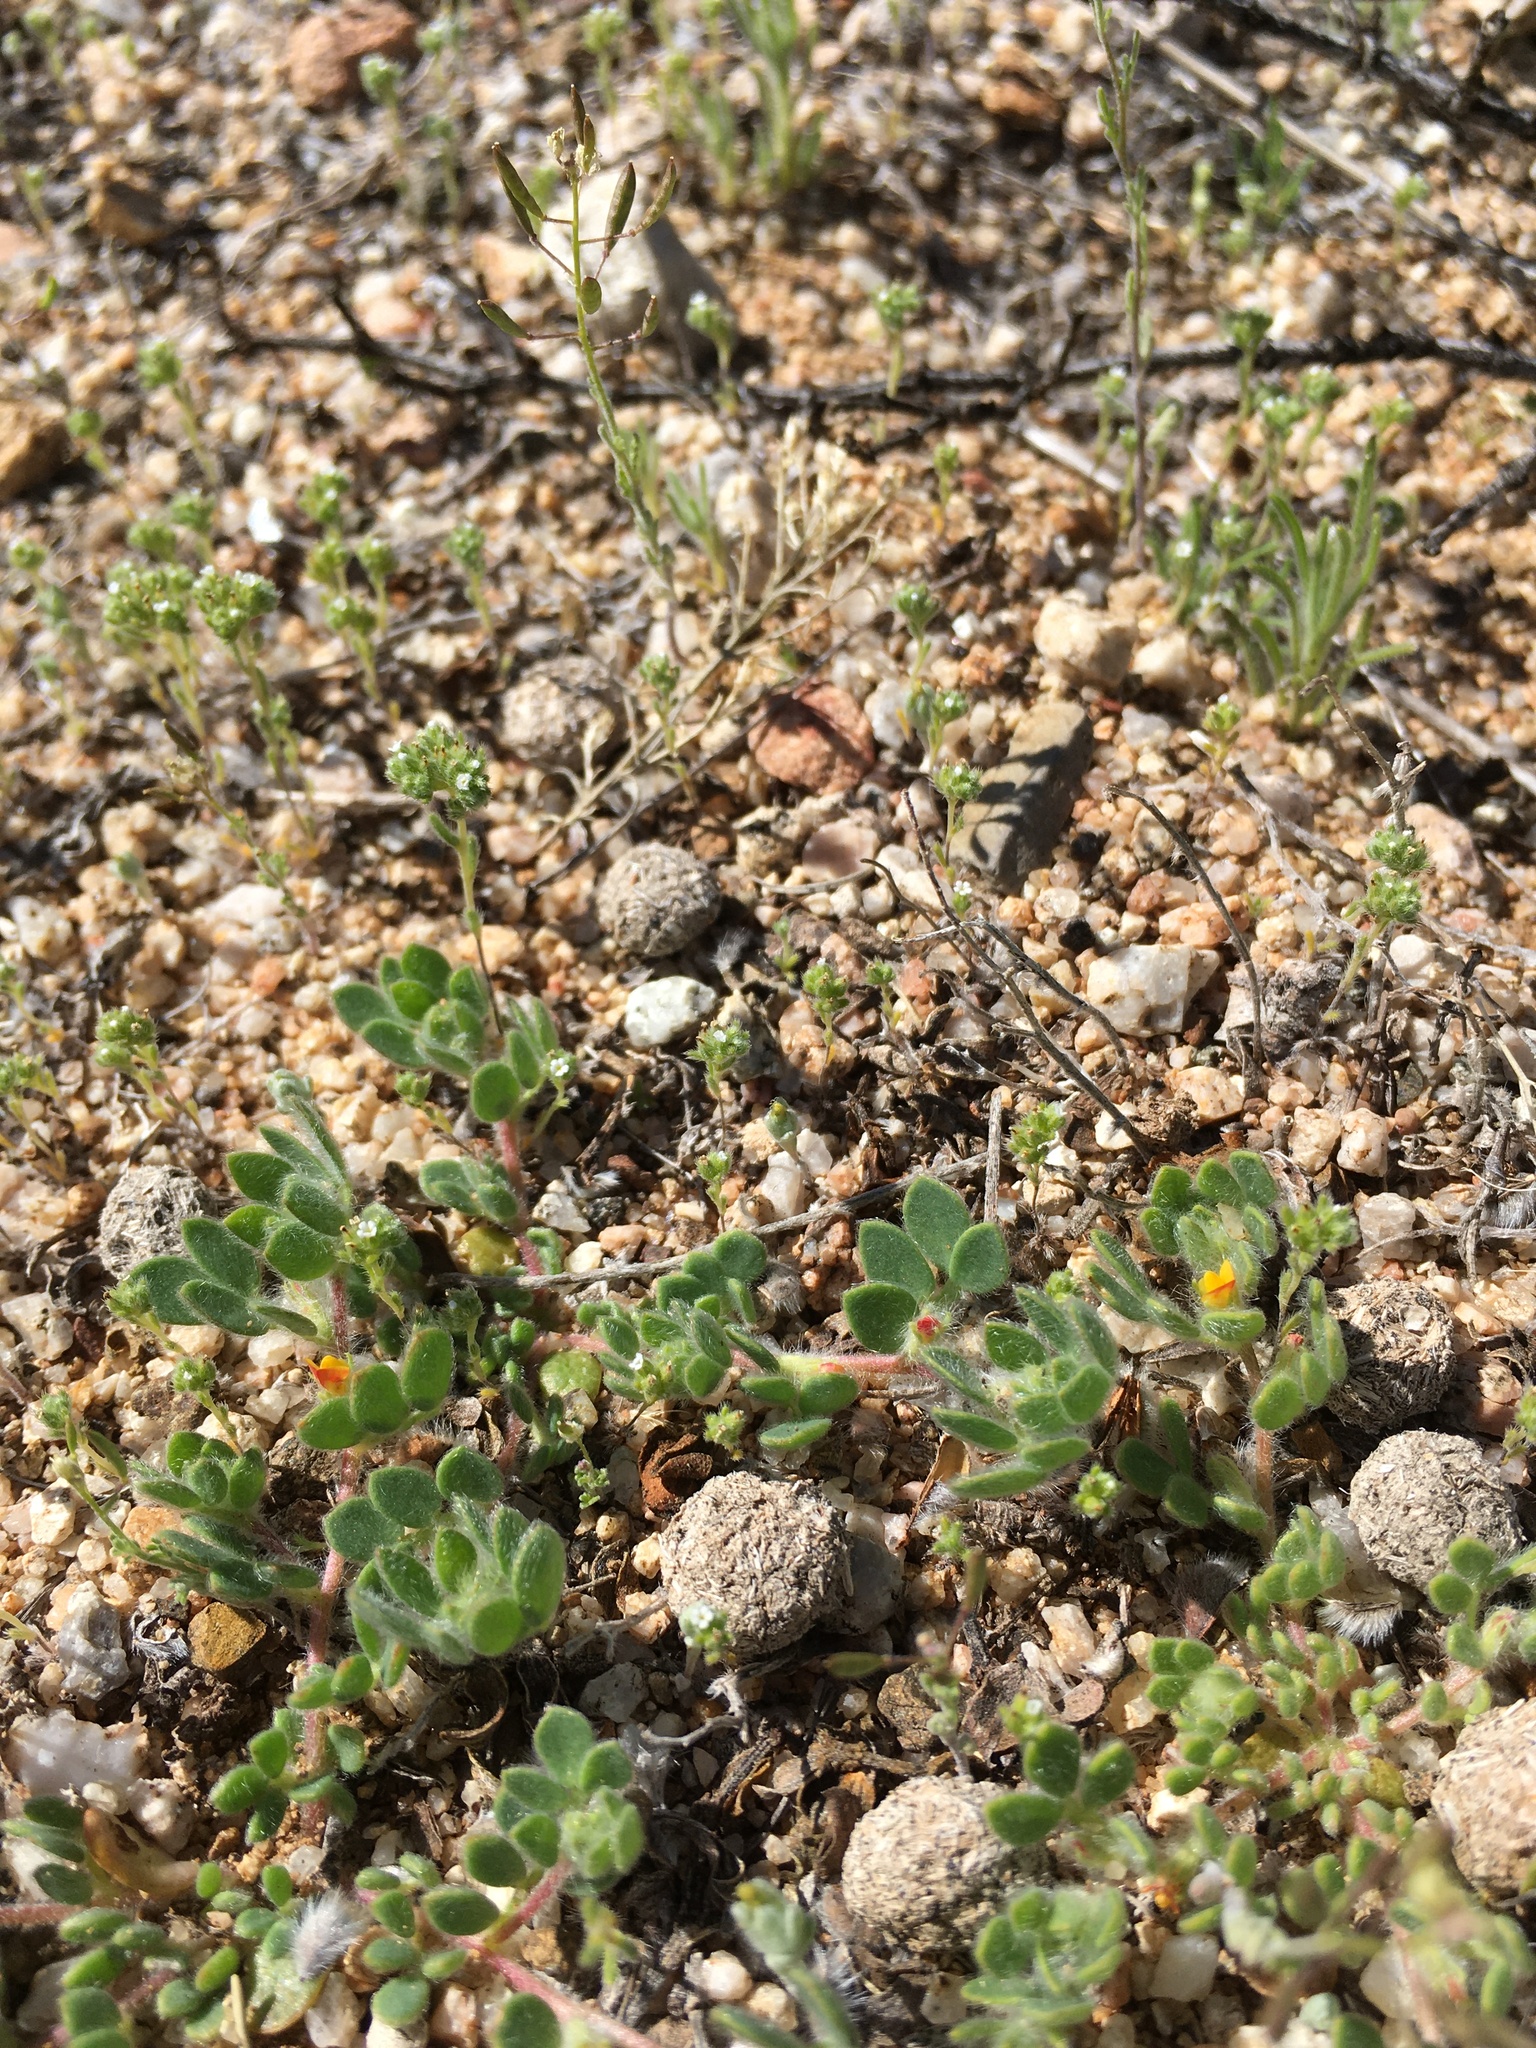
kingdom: Plantae
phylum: Tracheophyta
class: Magnoliopsida
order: Fabales
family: Fabaceae
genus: Acmispon
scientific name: Acmispon brachycarpus
